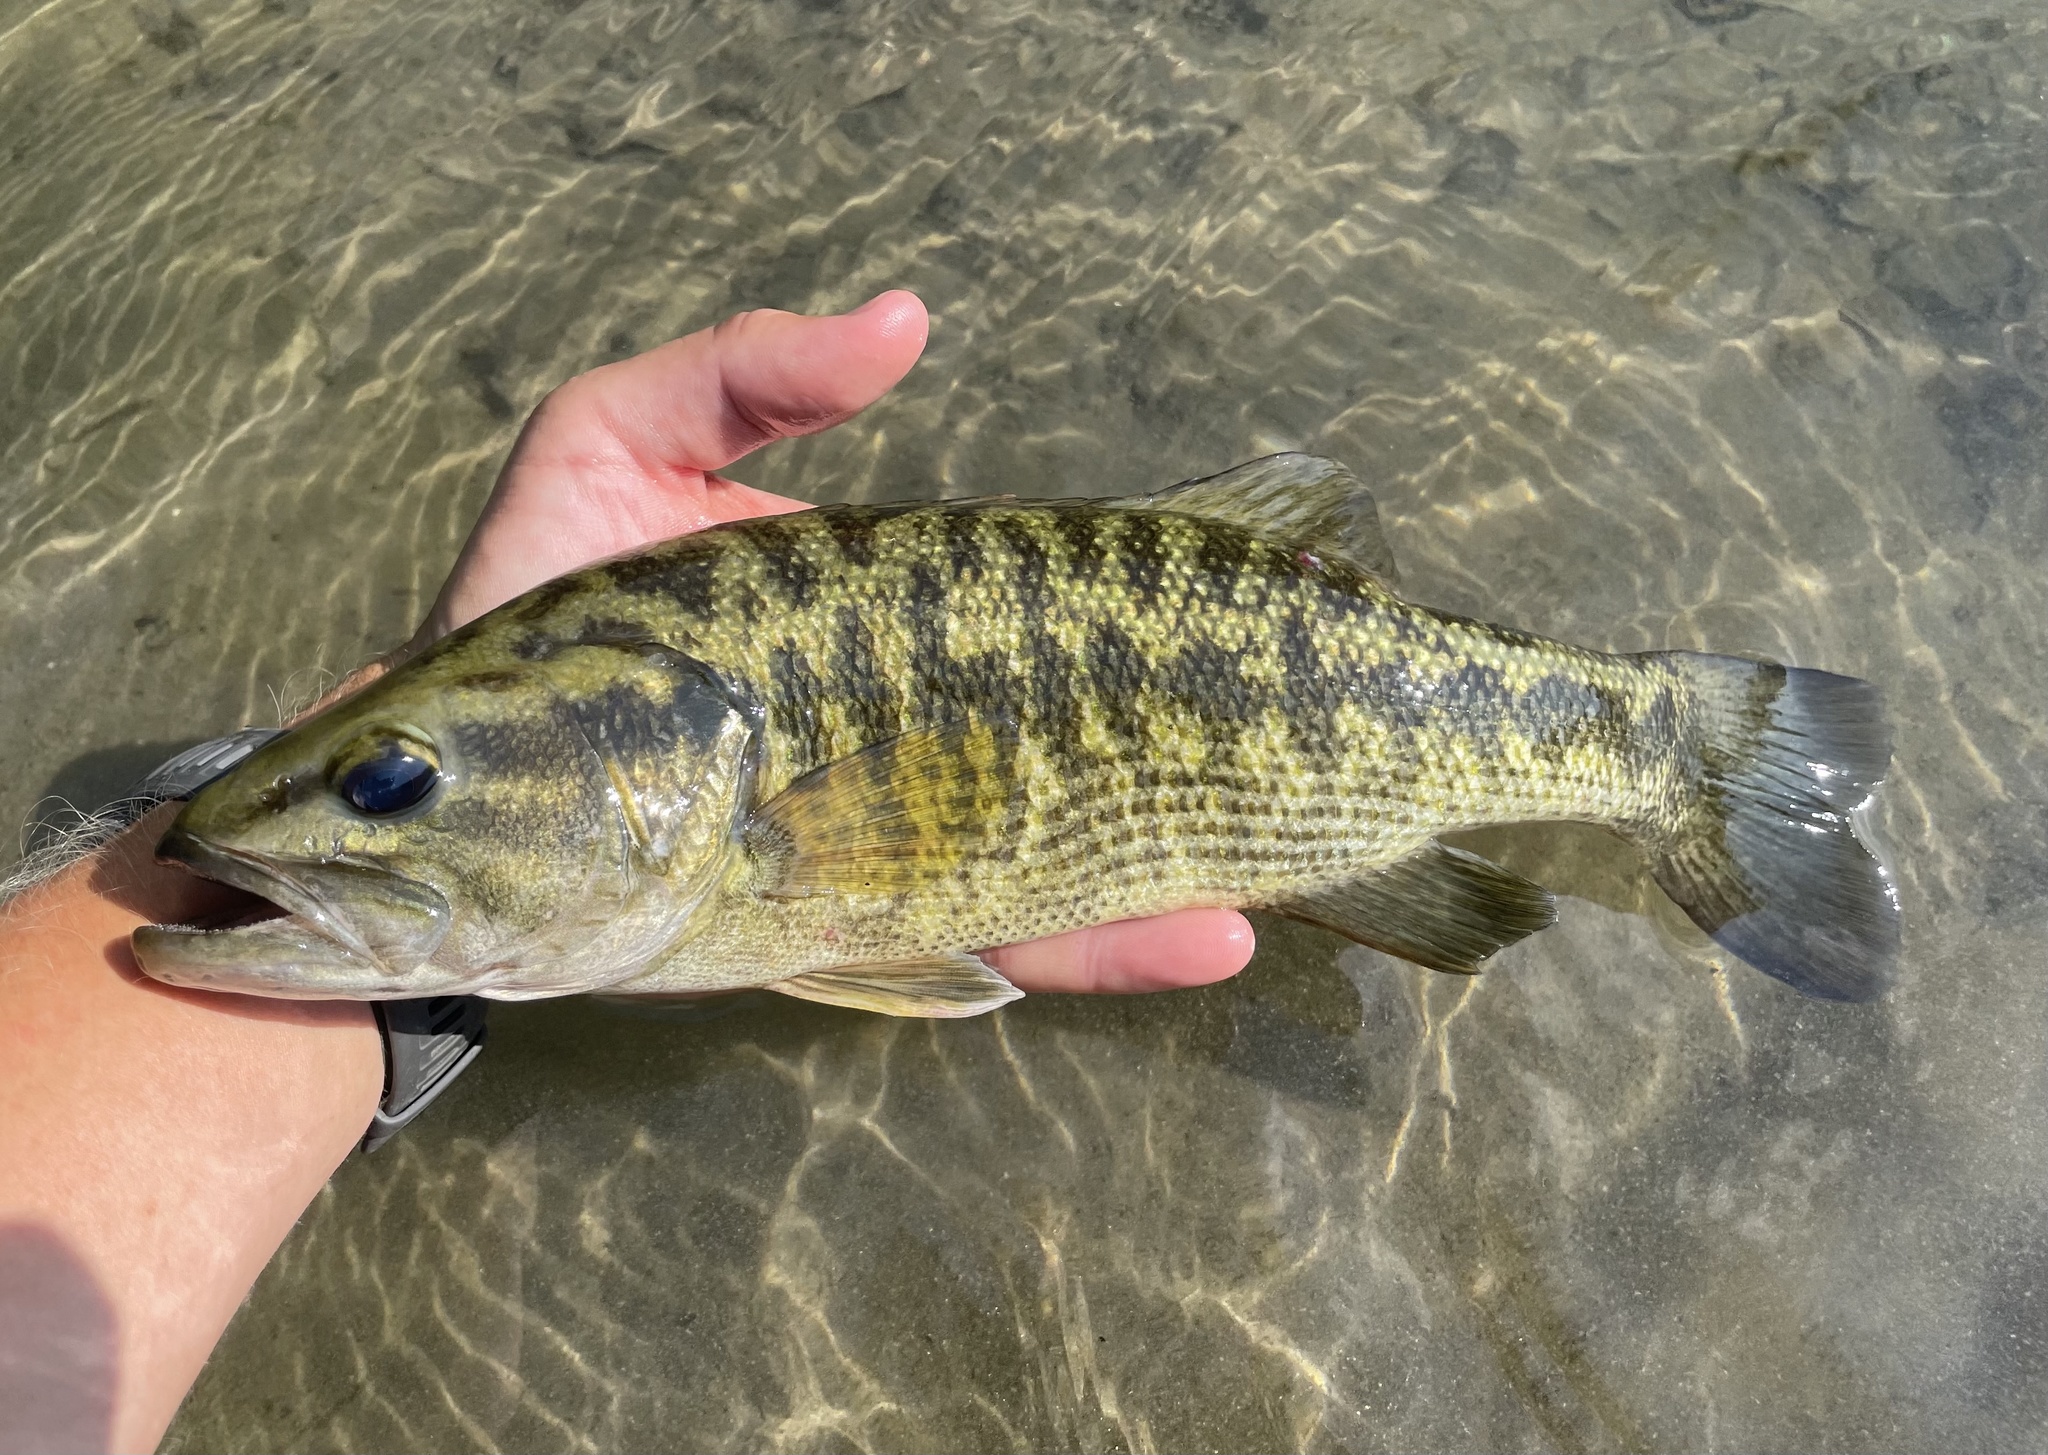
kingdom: Animalia
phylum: Chordata
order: Perciformes
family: Centrarchidae
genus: Micropterus
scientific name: Micropterus treculii
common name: Guadalupe bass
